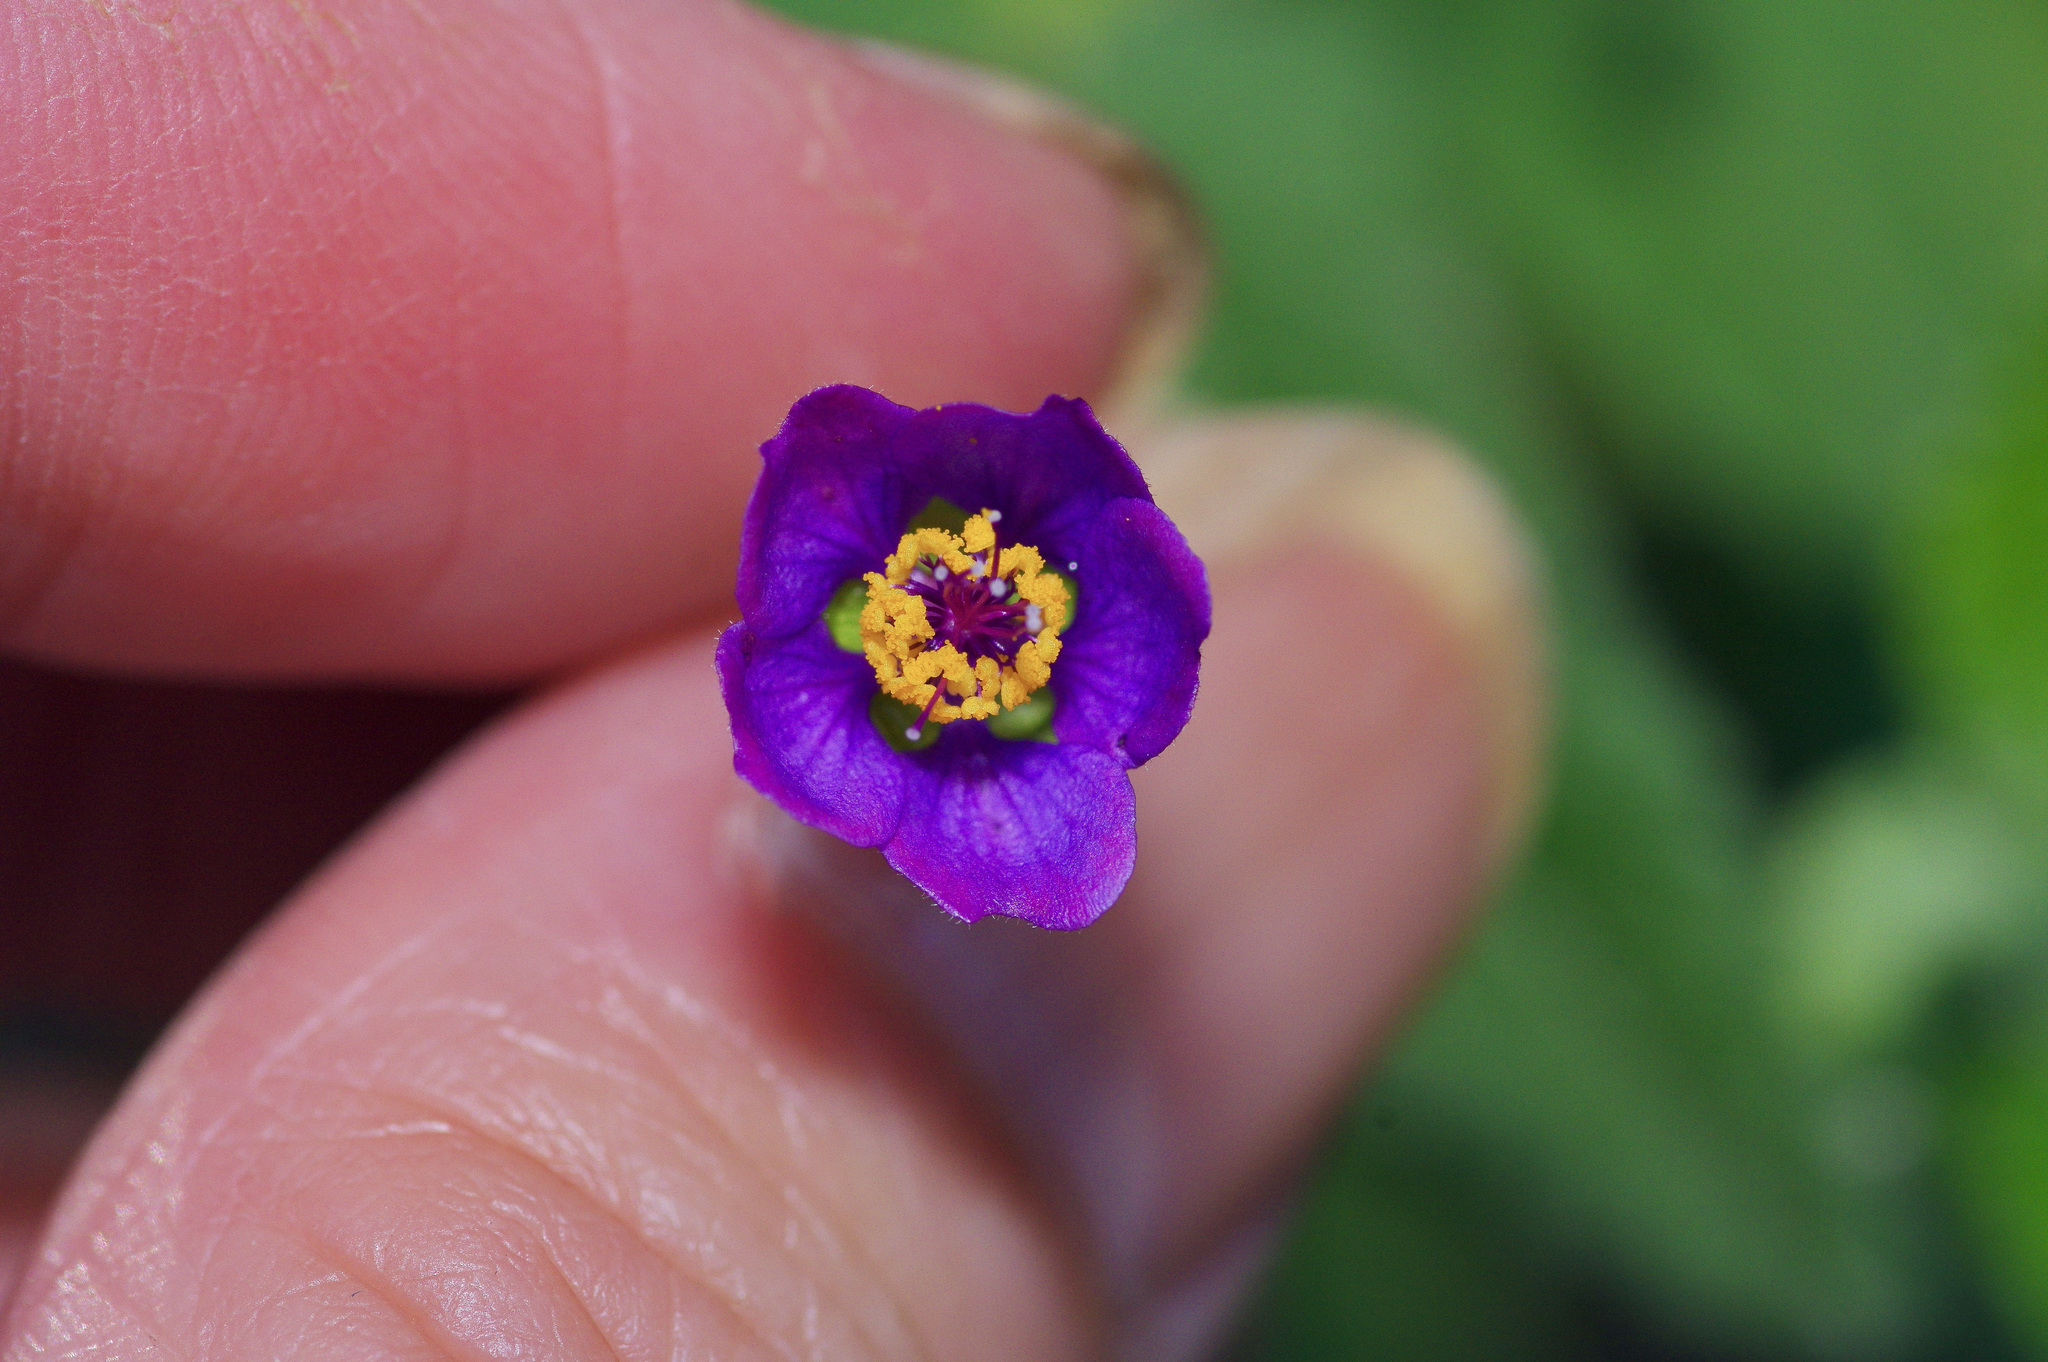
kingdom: Plantae
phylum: Tracheophyta
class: Magnoliopsida
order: Malvales
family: Malvaceae
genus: Meximalva
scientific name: Meximalva filipes
